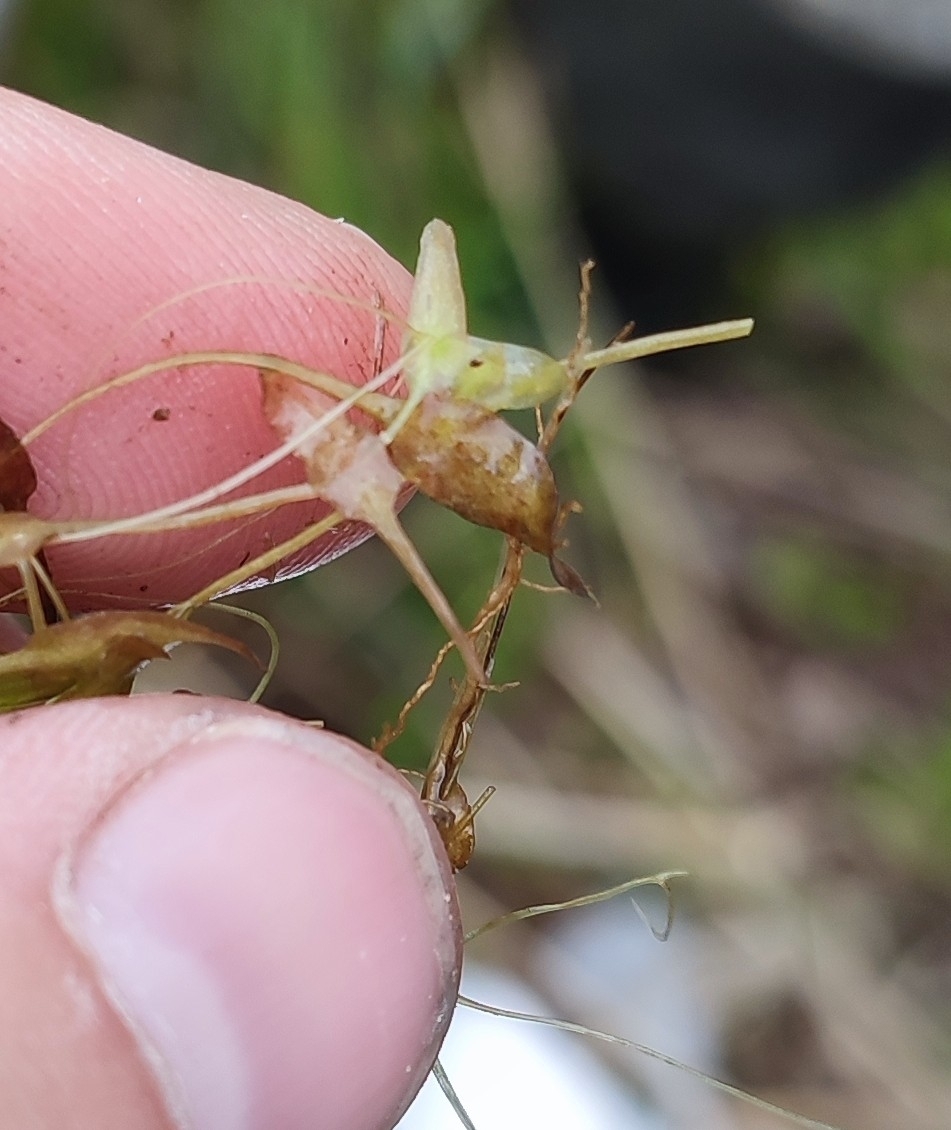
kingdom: Plantae
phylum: Tracheophyta
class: Liliopsida
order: Alismatales
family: Araceae
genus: Lemna
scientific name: Lemna trisulca
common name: Ivy-leaved duckweed
